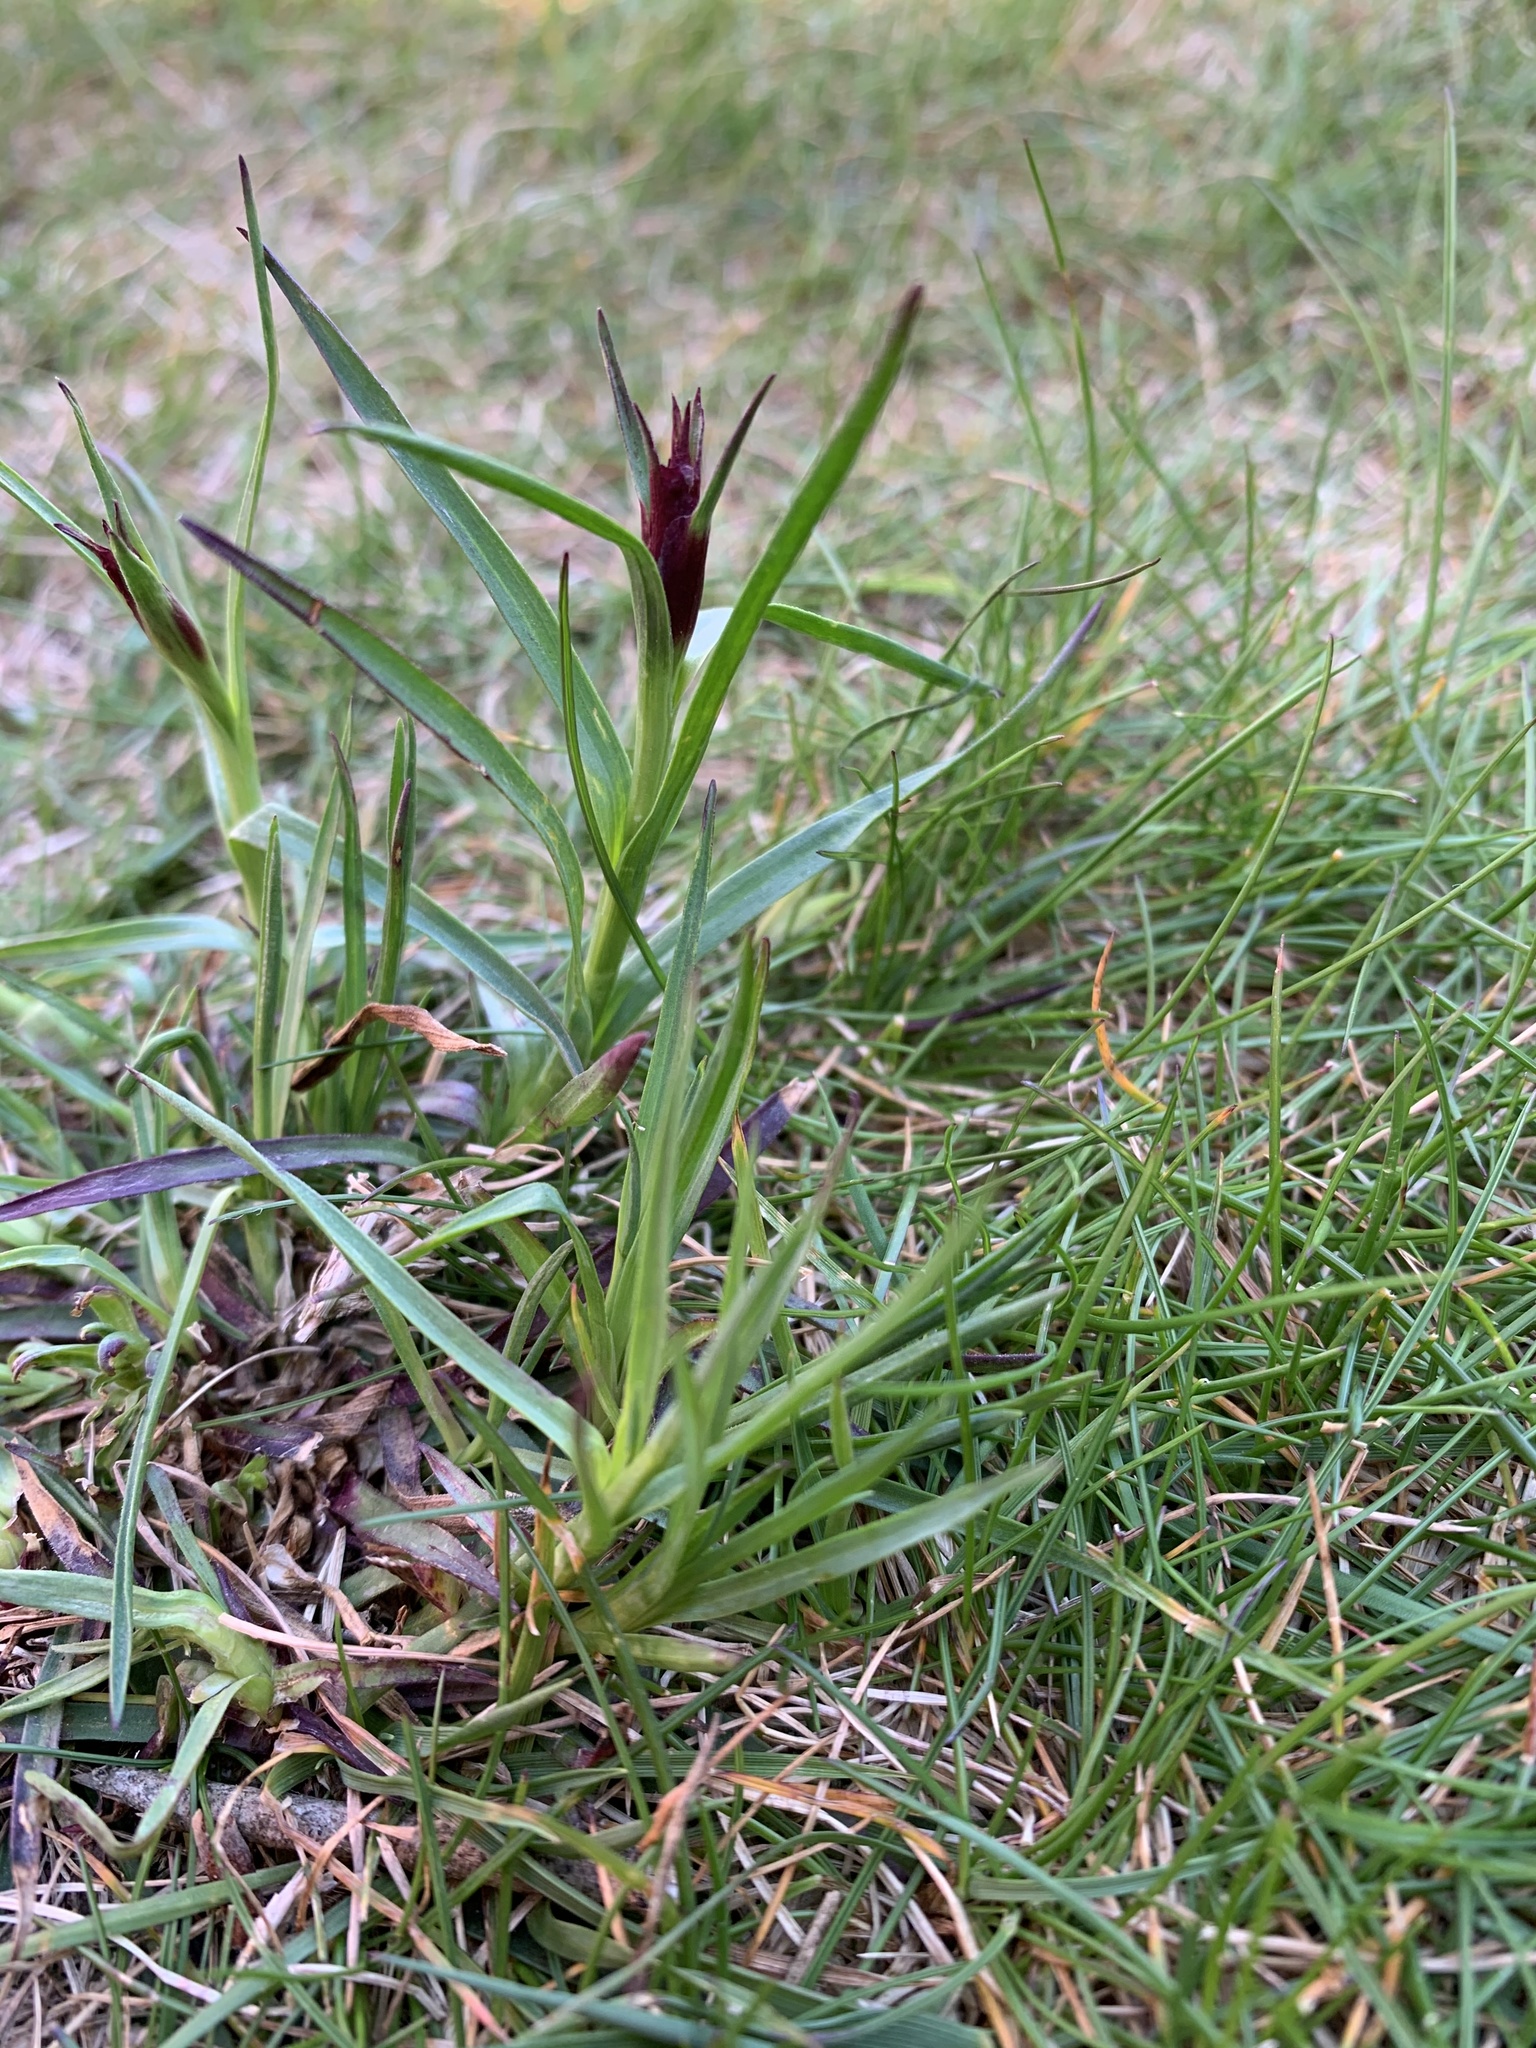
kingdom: Plantae
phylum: Tracheophyta
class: Magnoliopsida
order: Caryophyllales
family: Caryophyllaceae
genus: Dianthus
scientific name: Dianthus carthusianorum
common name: Carthusian pink
